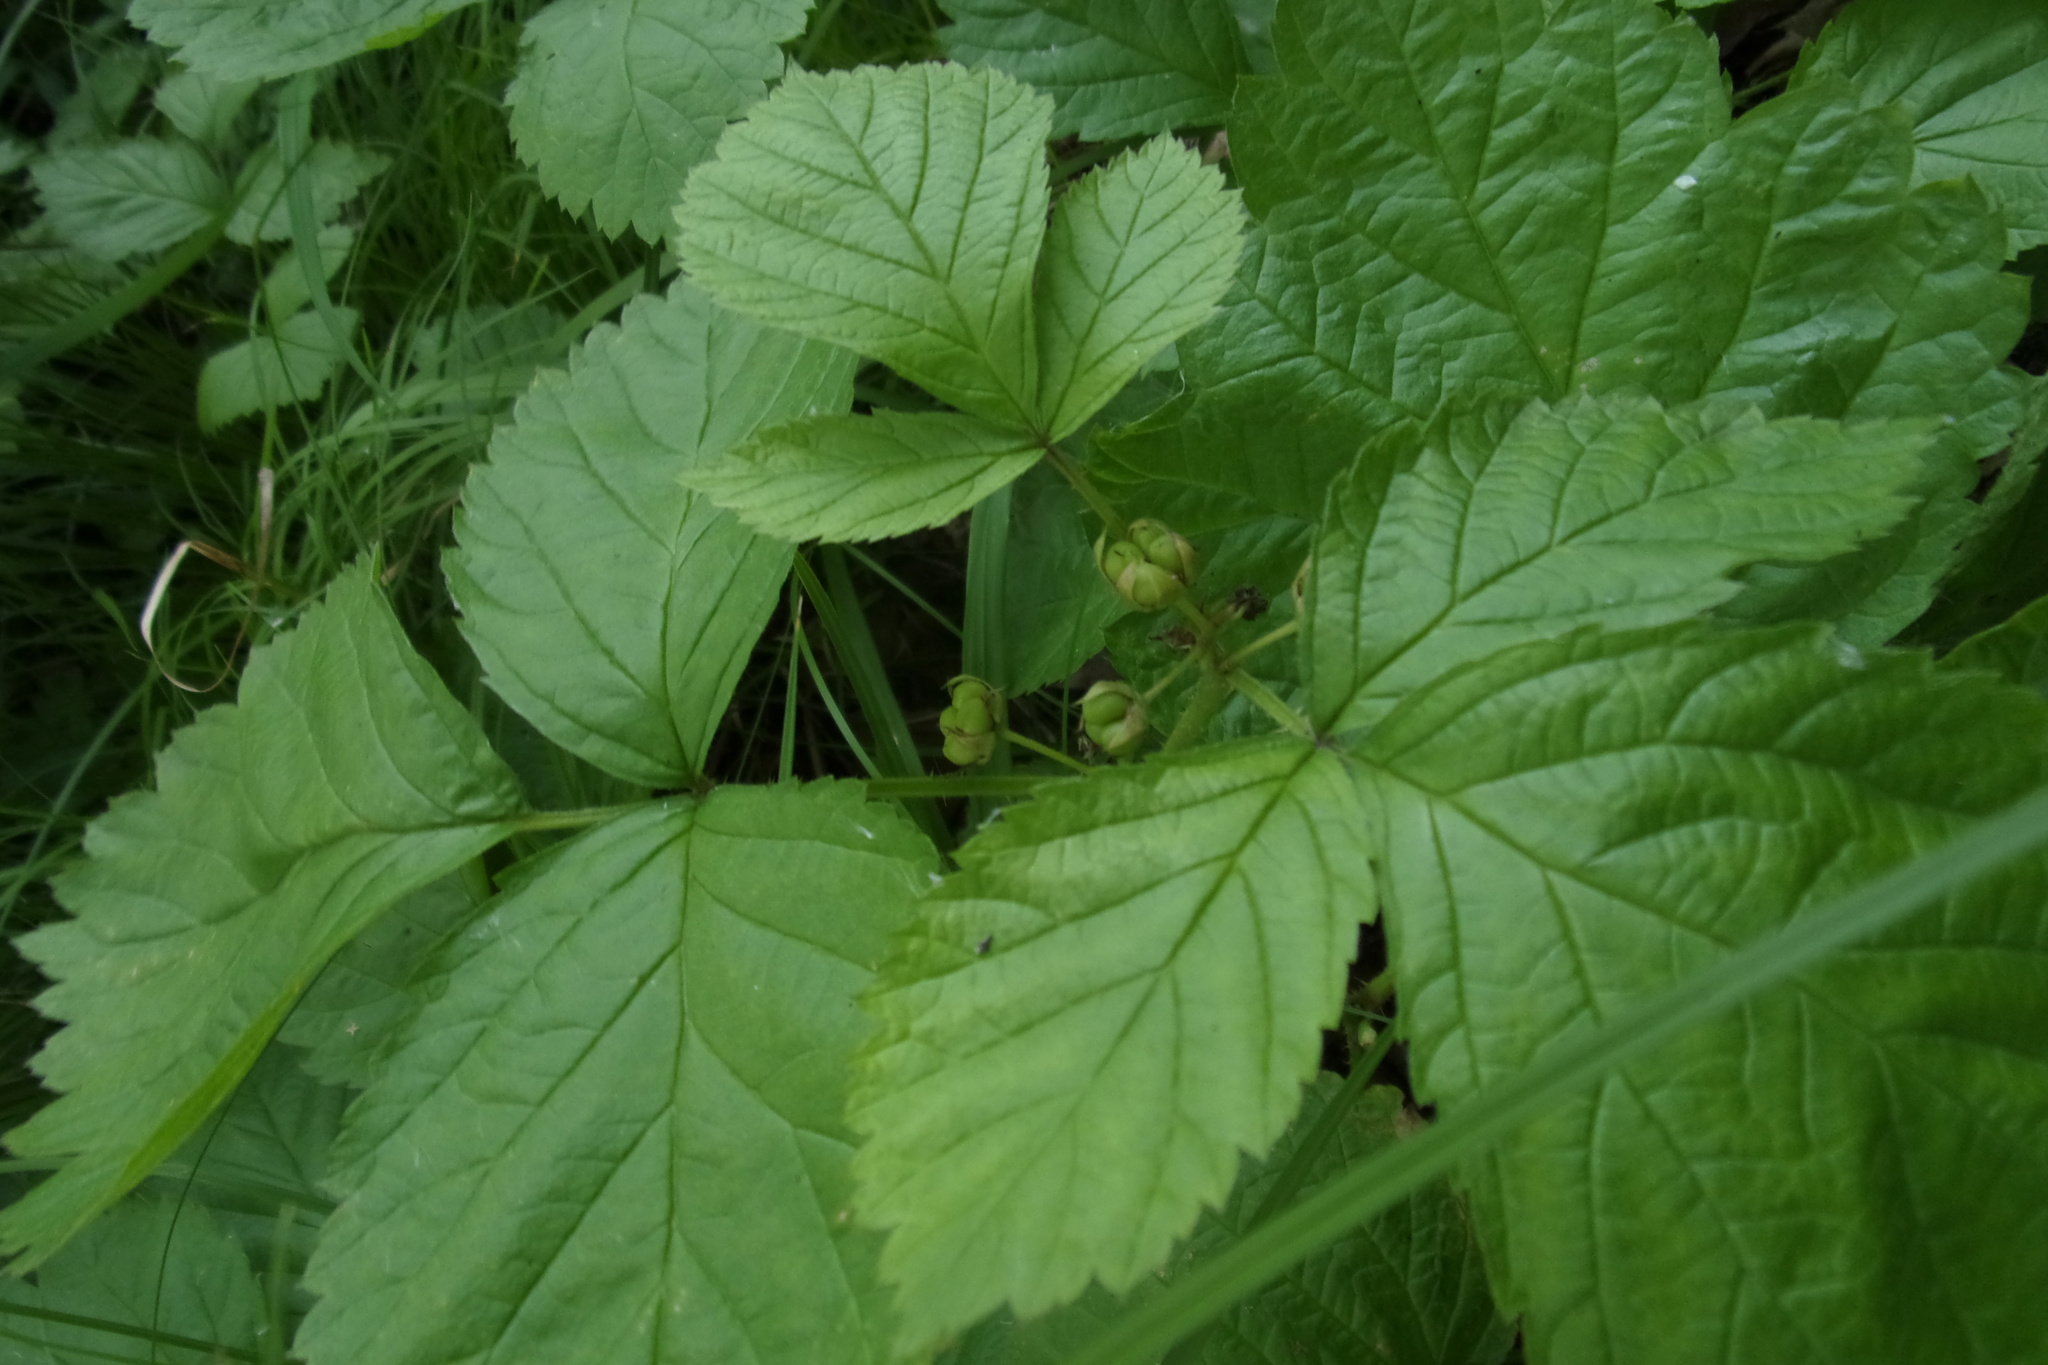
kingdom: Plantae
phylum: Tracheophyta
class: Magnoliopsida
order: Rosales
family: Rosaceae
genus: Rubus
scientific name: Rubus saxatilis
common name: Stone bramble
